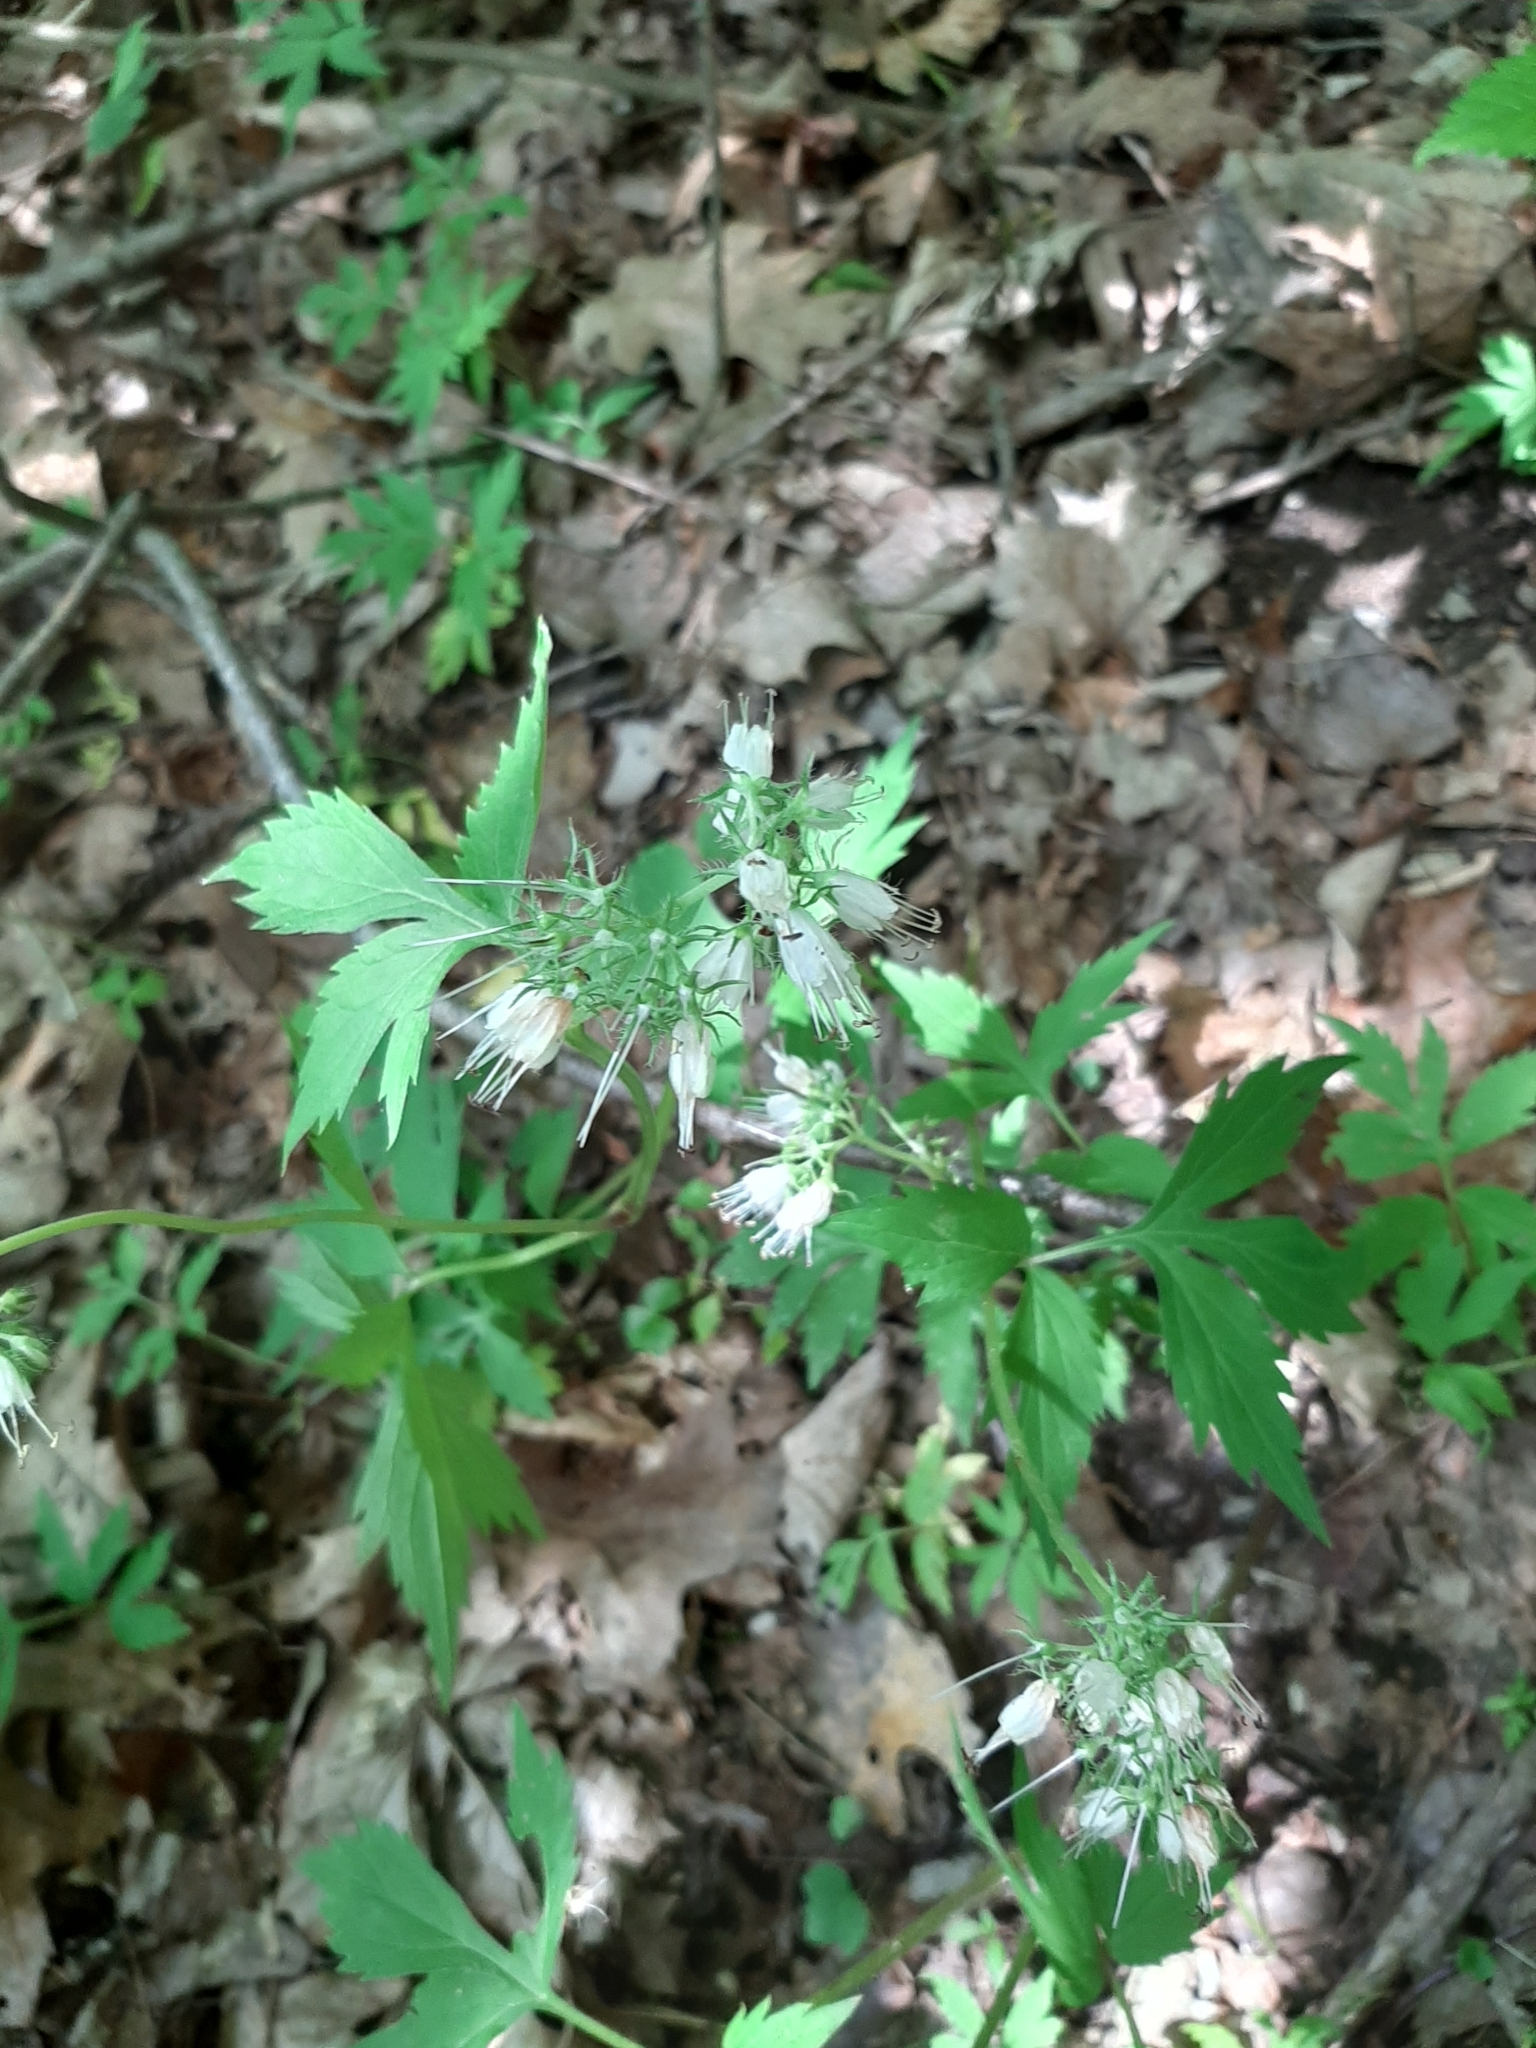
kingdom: Plantae
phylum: Tracheophyta
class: Magnoliopsida
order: Boraginales
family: Hydrophyllaceae
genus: Hydrophyllum
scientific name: Hydrophyllum virginianum
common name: Virginia waterleaf
